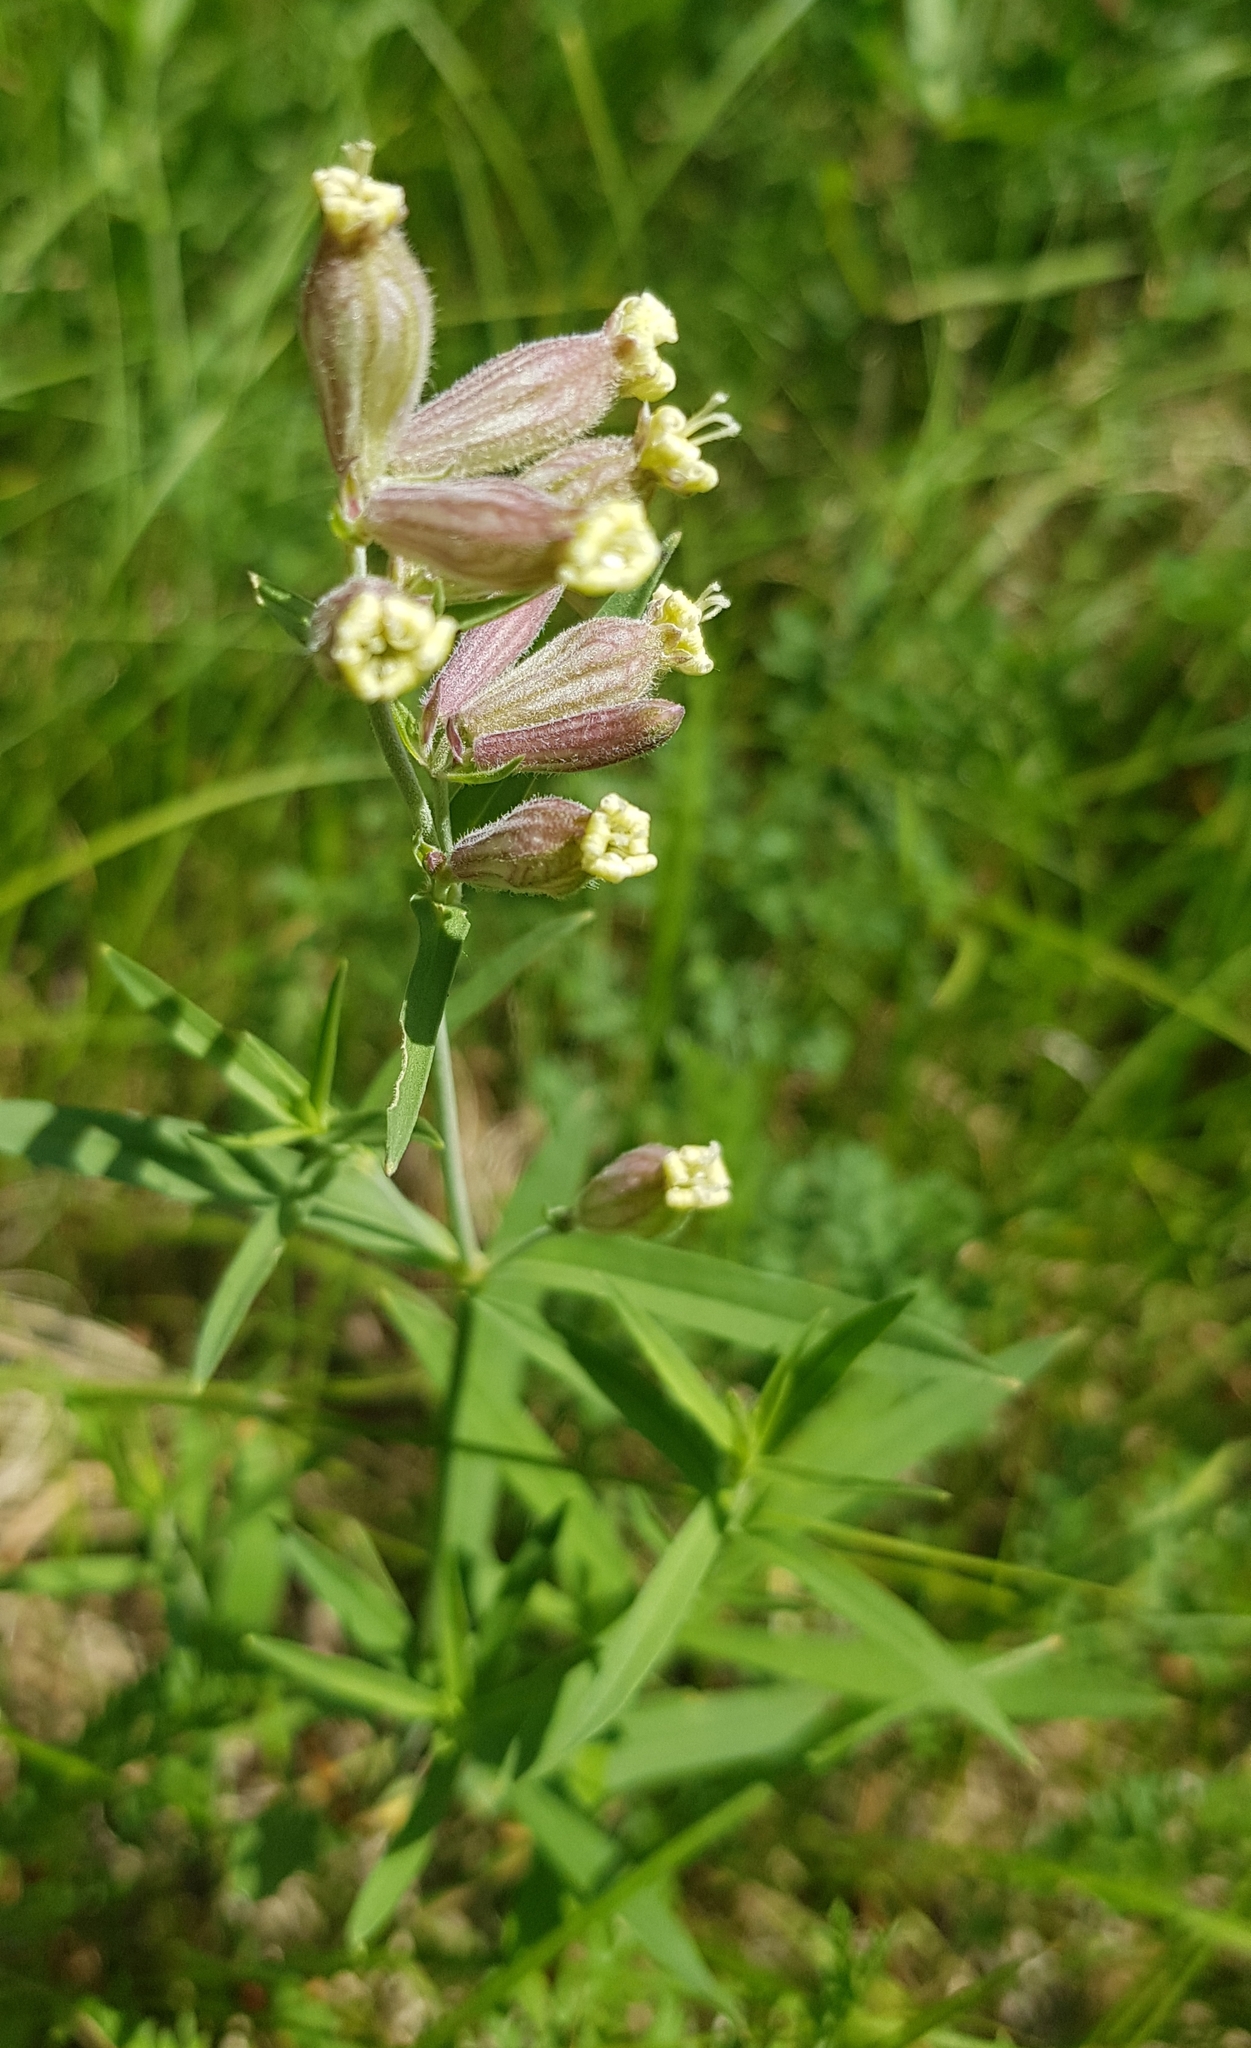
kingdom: Plantae
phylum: Tracheophyta
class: Magnoliopsida
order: Caryophyllales
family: Caryophyllaceae
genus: Silene
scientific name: Silene amoena
